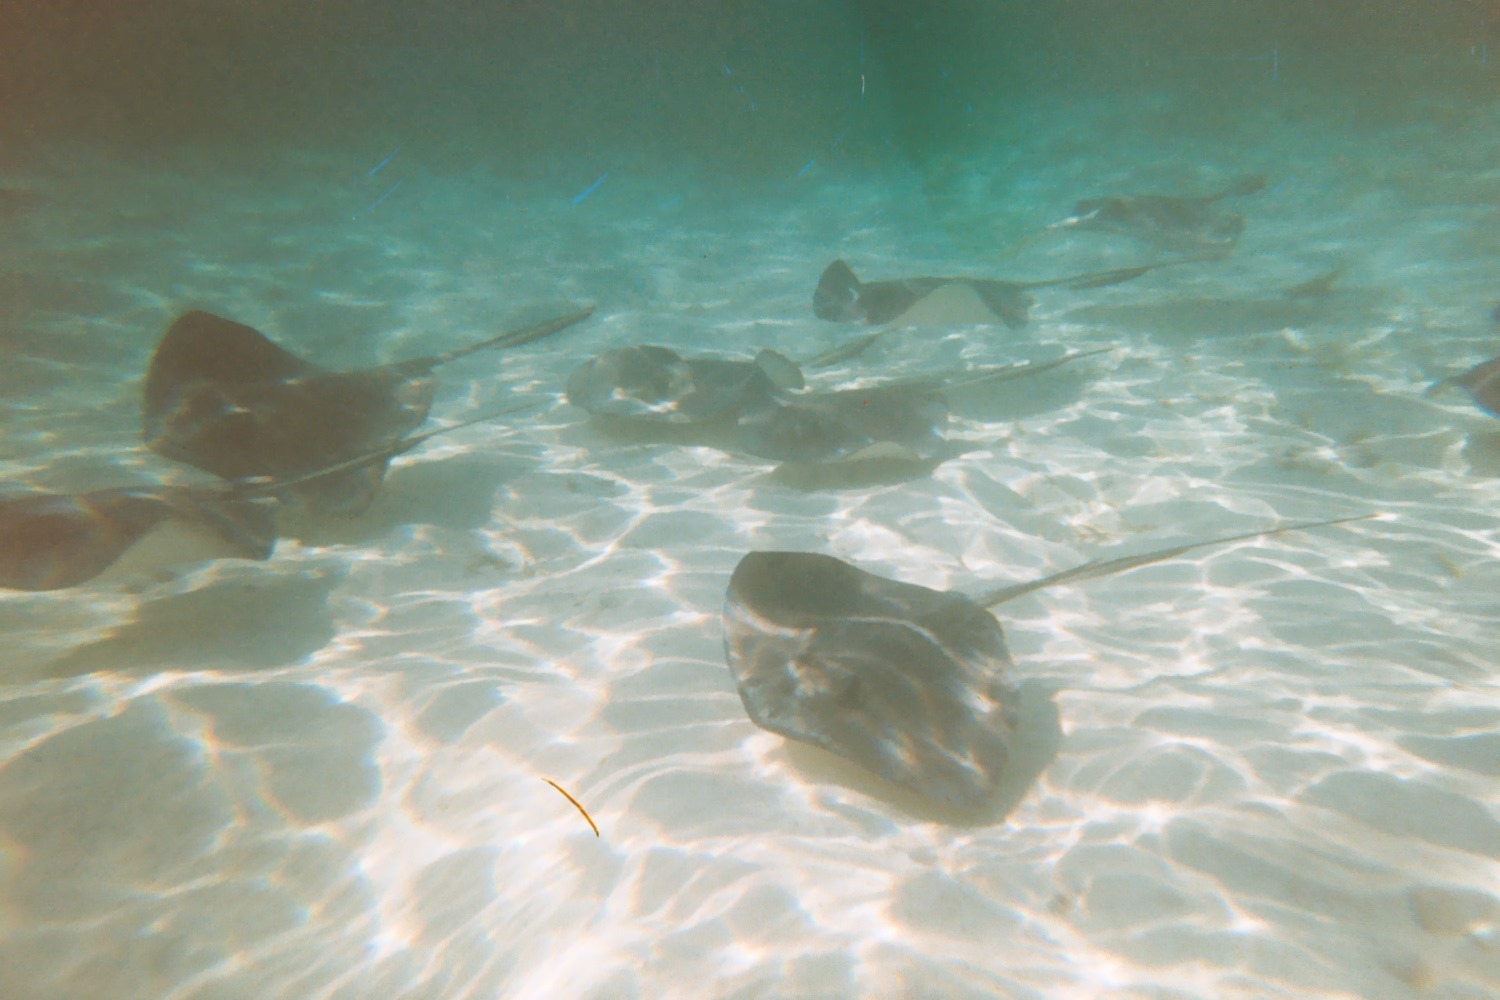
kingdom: Animalia
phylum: Chordata
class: Elasmobranchii
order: Myliobatiformes
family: Dasyatidae
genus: Hypanus
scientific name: Hypanus americanus
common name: Southern stingray
